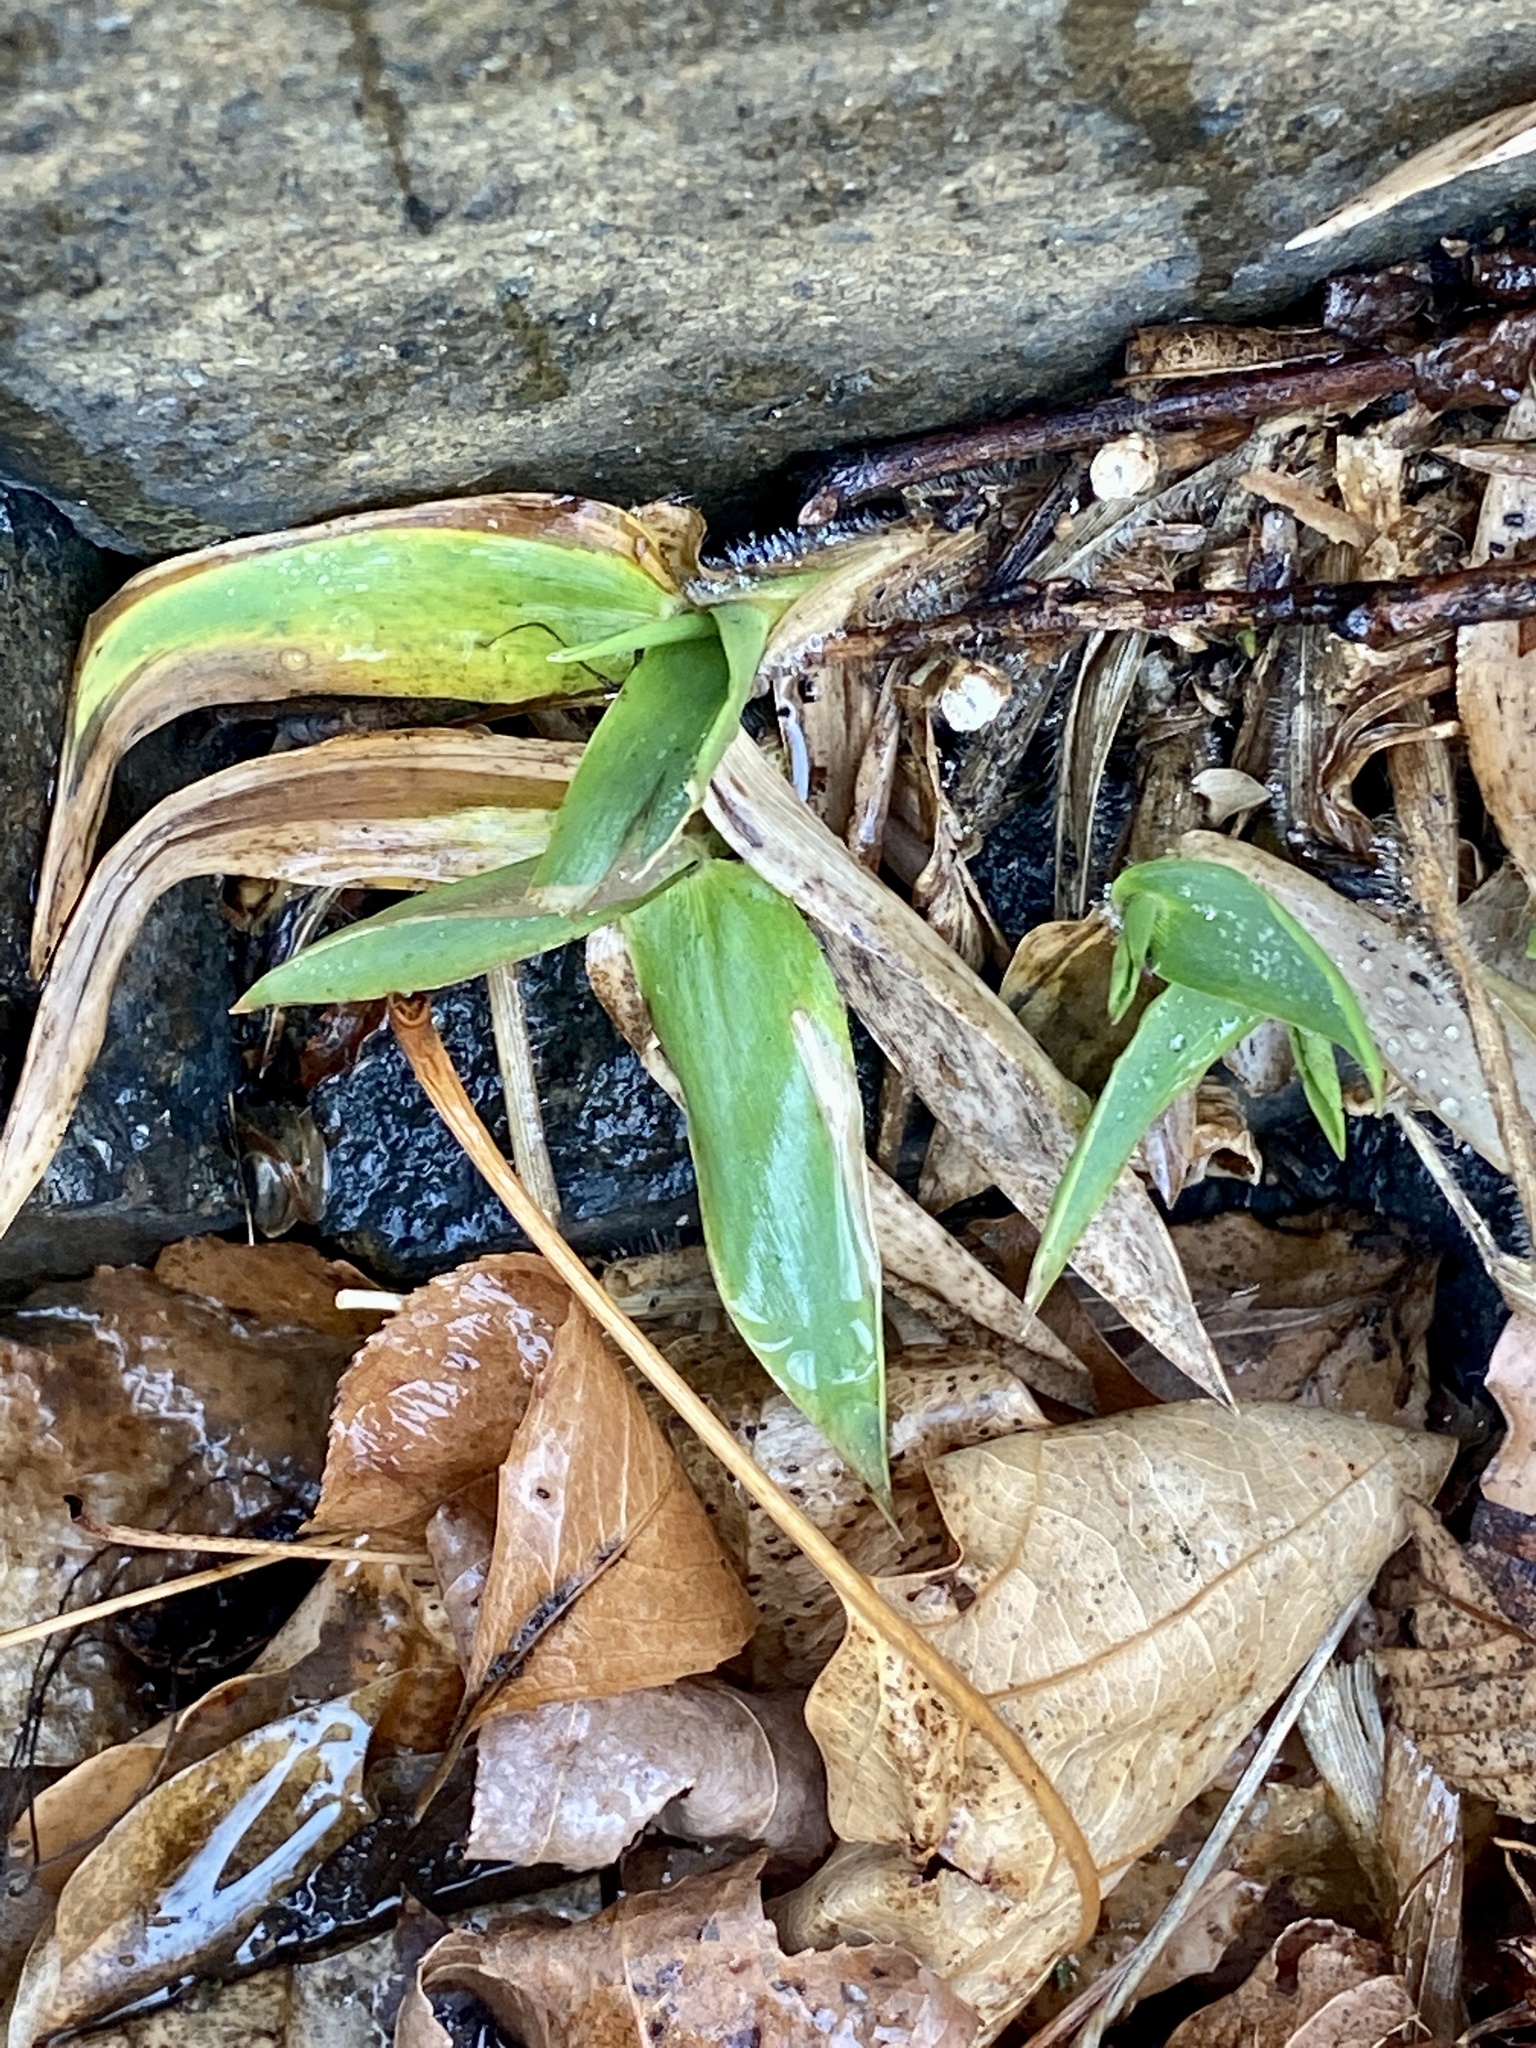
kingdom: Plantae
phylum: Tracheophyta
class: Liliopsida
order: Poales
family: Poaceae
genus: Dichanthelium
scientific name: Dichanthelium clandestinum
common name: Deer-tongue grass
